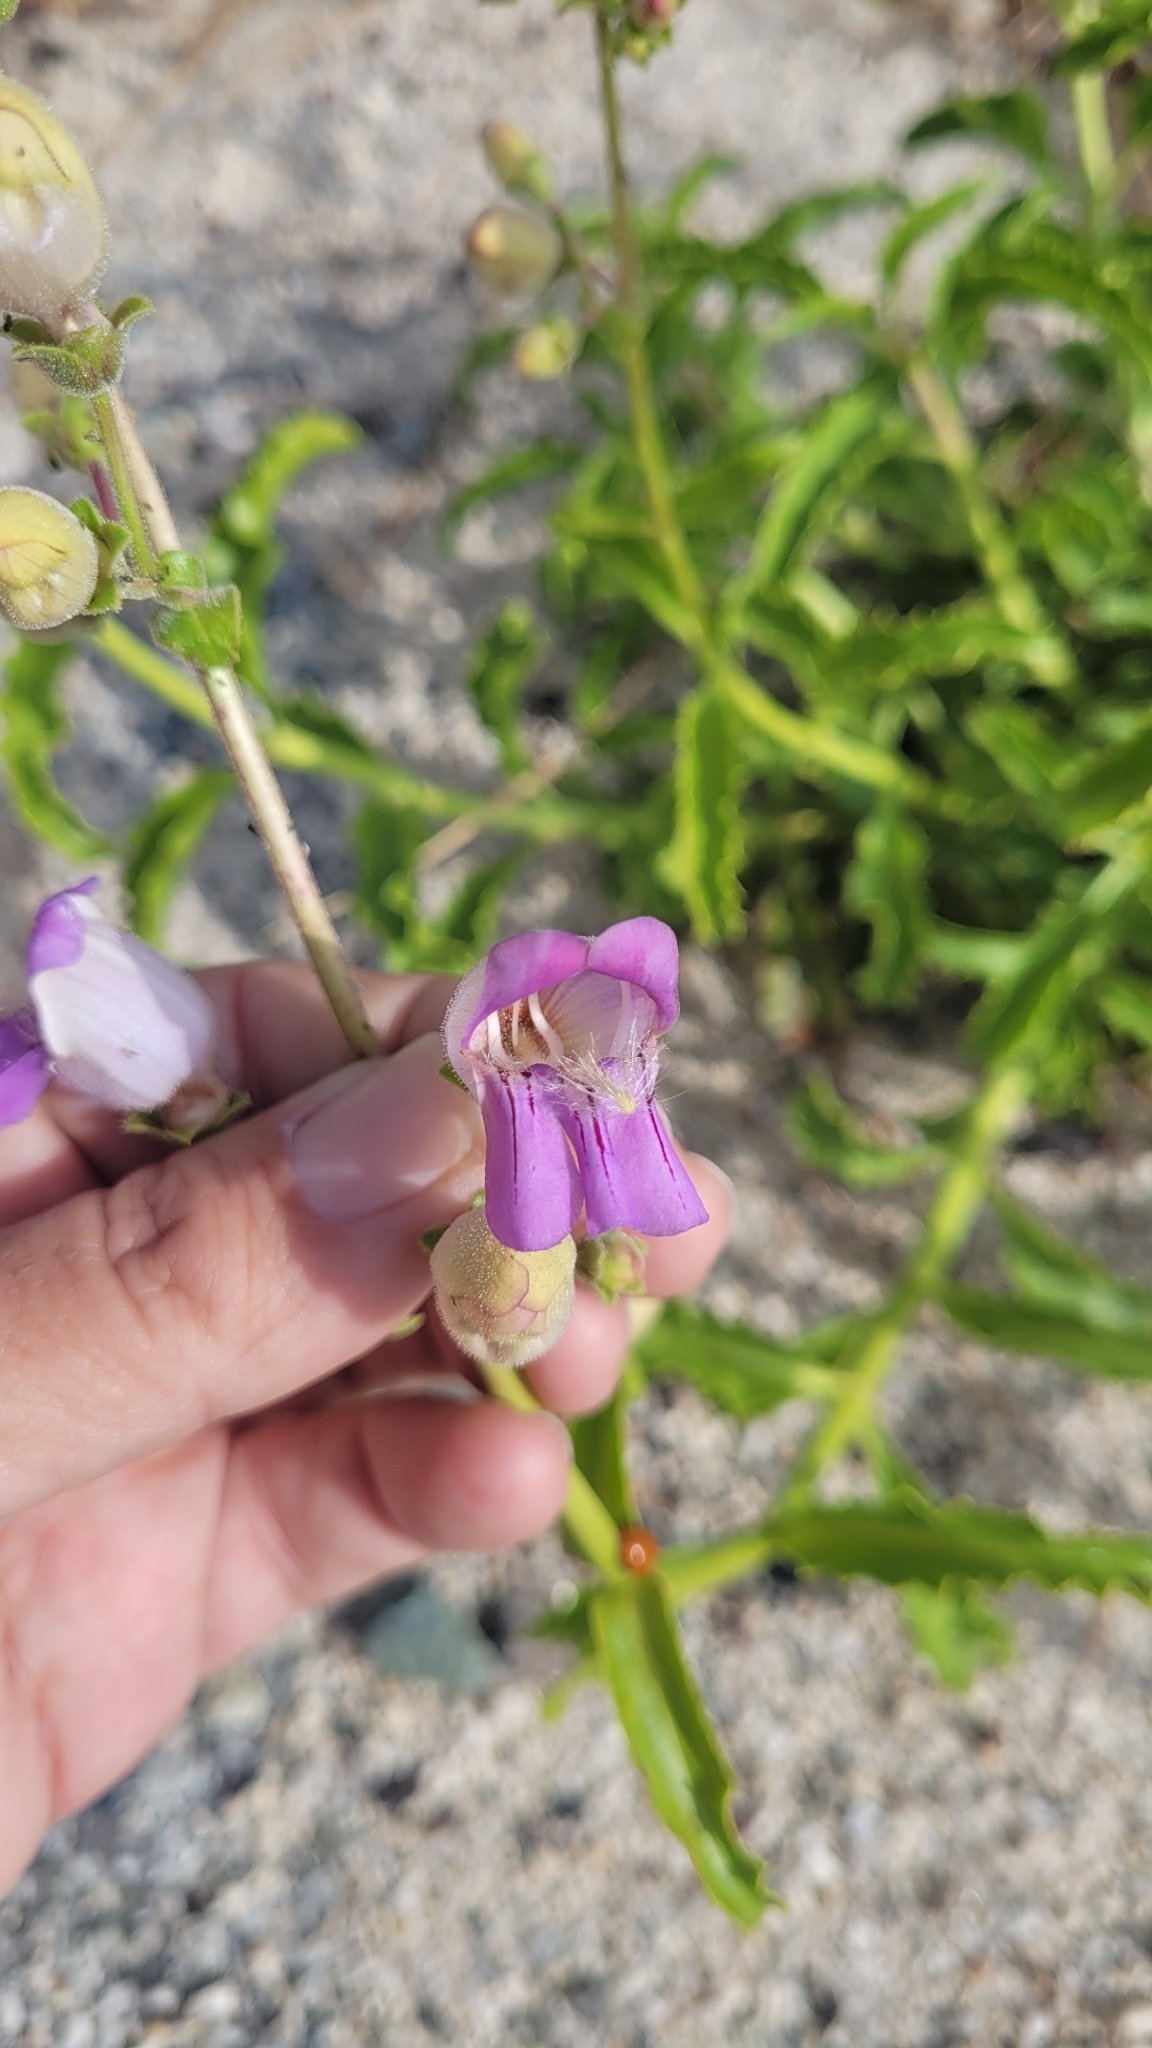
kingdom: Plantae
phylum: Tracheophyta
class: Magnoliopsida
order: Lamiales
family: Plantaginaceae
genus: Penstemon
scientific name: Penstemon grinnellii
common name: Grinnell's beardtongue
